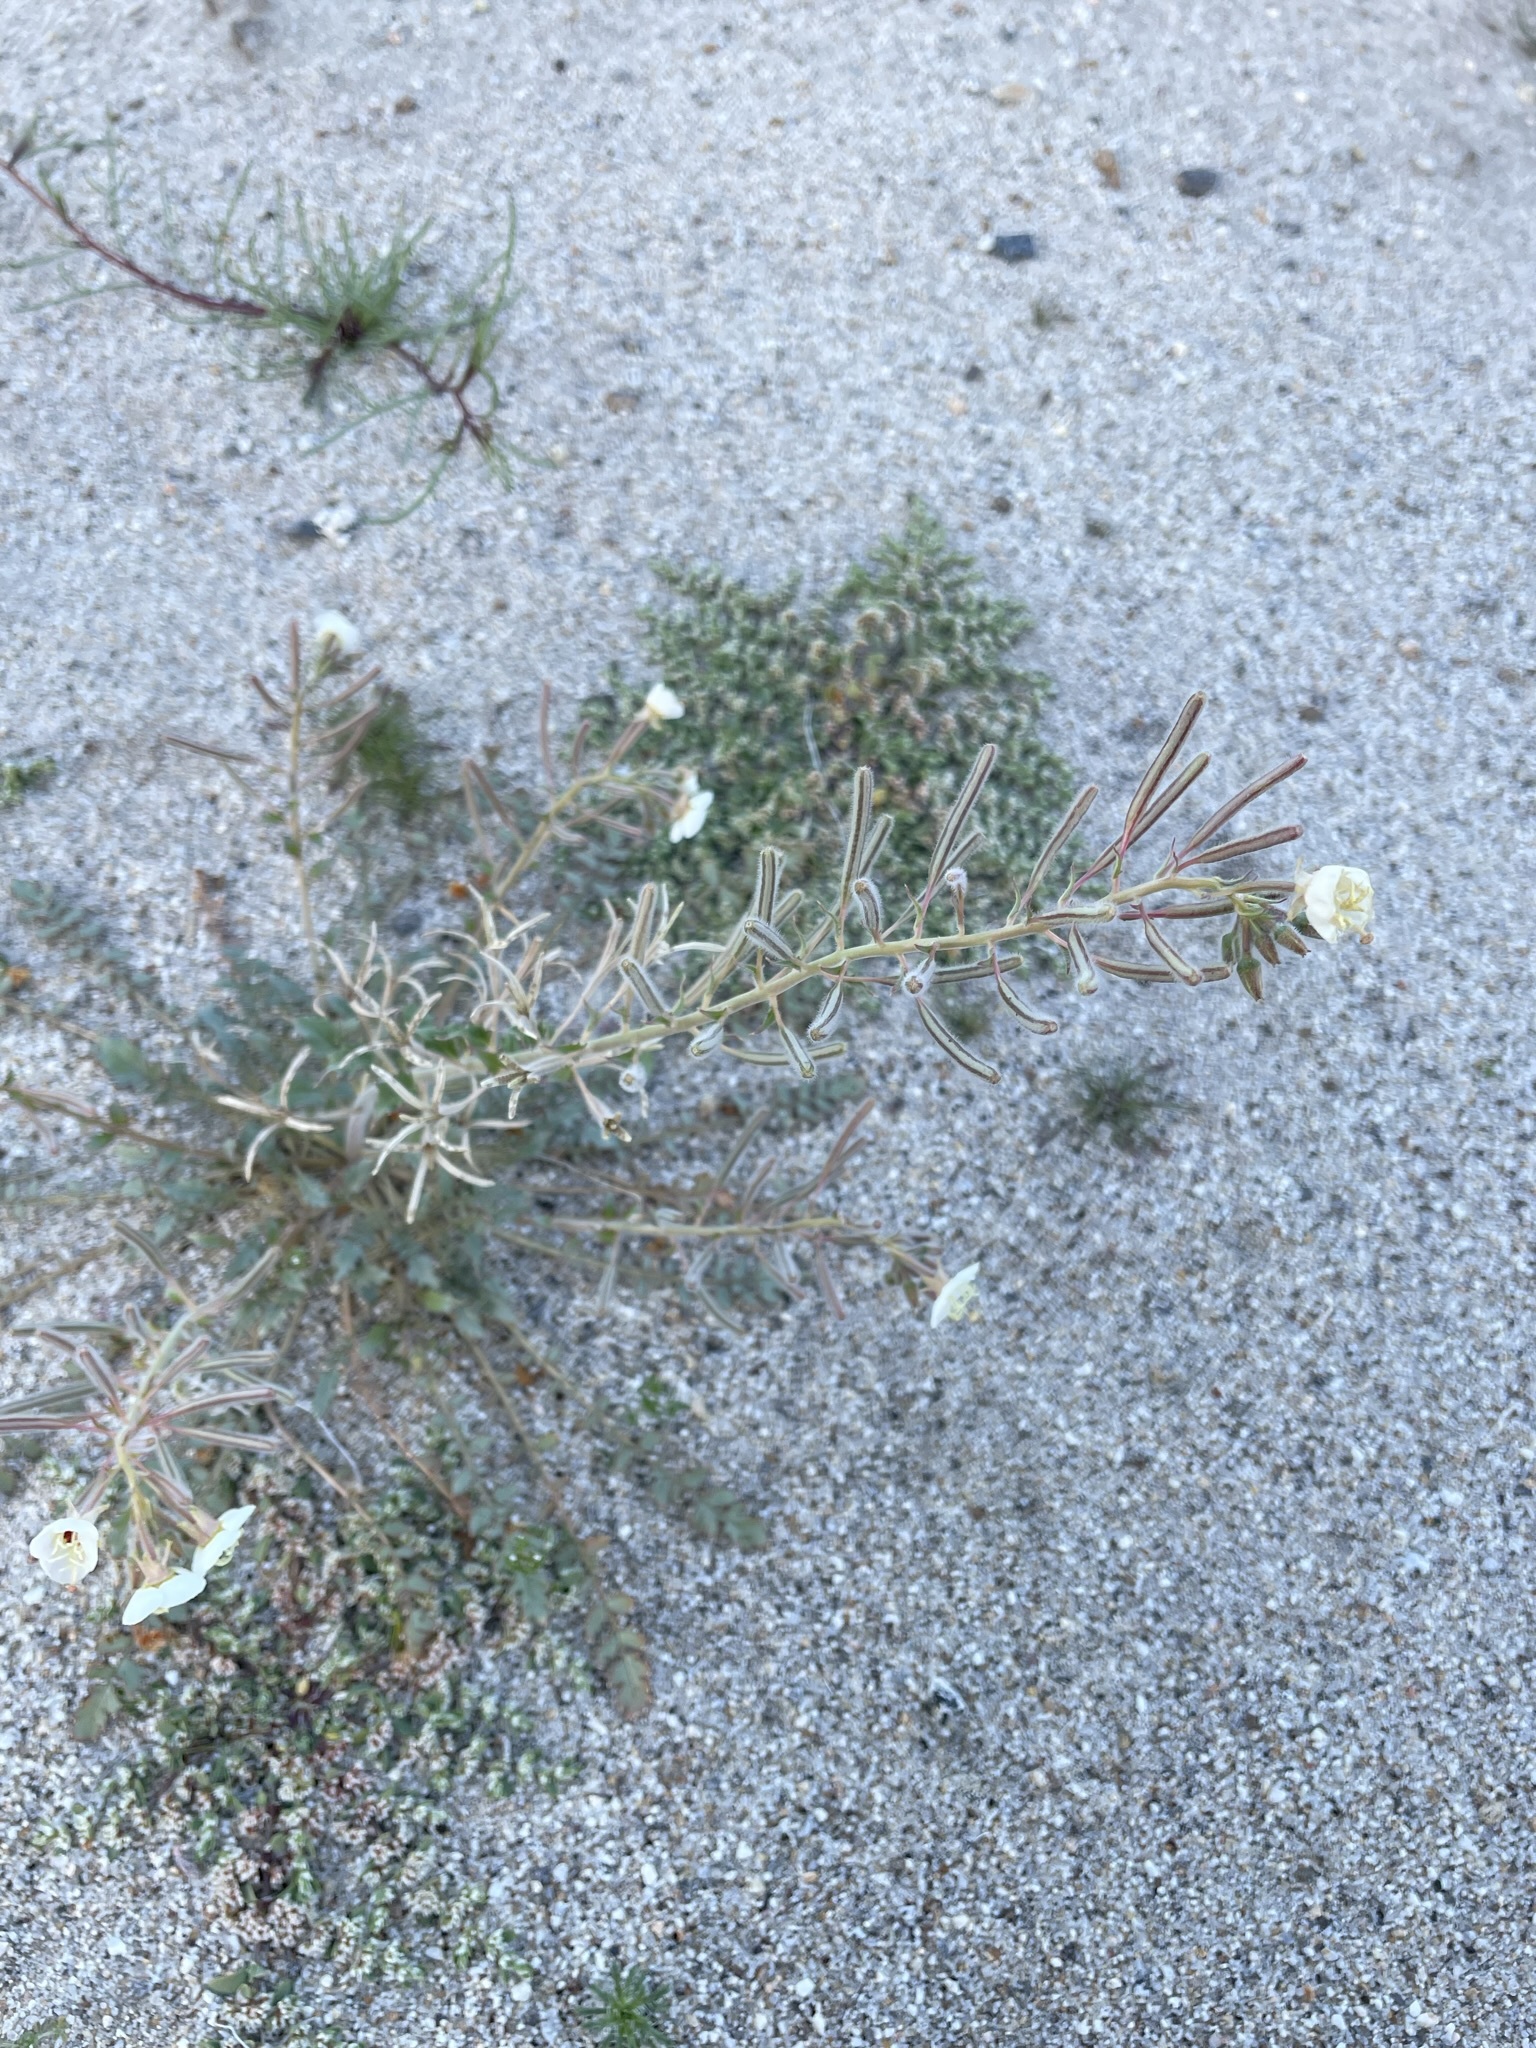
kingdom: Plantae
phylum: Tracheophyta
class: Magnoliopsida
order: Myrtales
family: Onagraceae
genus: Chylismia
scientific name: Chylismia claviformis
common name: Browneyes
